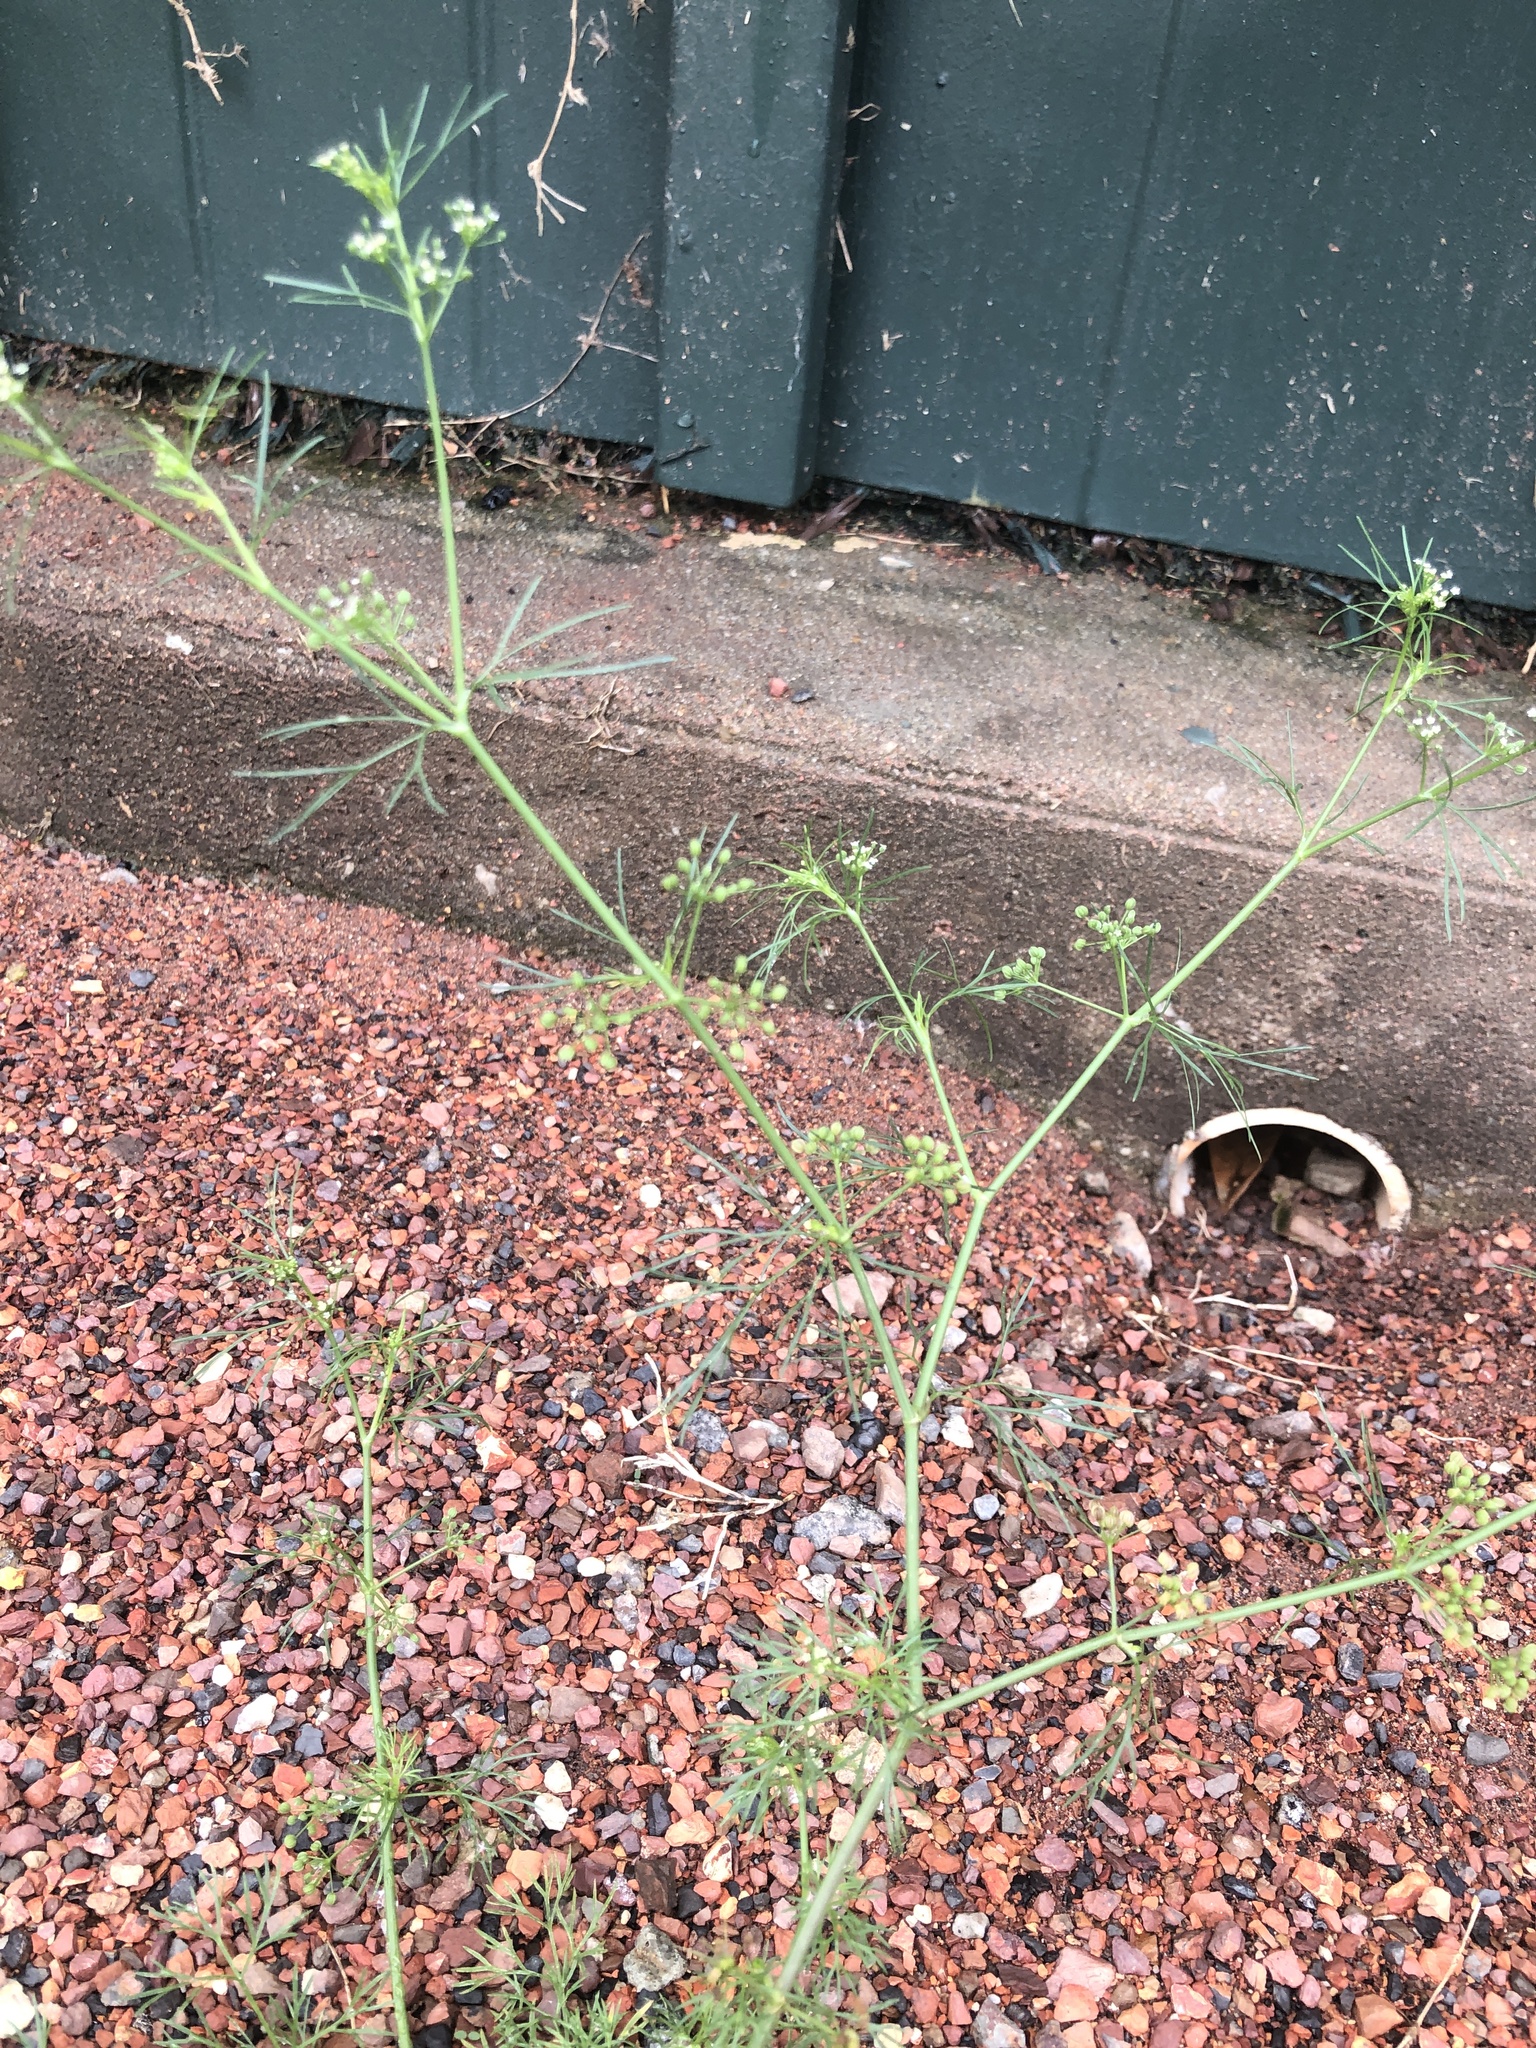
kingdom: Plantae
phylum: Tracheophyta
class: Magnoliopsida
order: Apiales
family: Apiaceae
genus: Cyclospermum
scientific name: Cyclospermum leptophyllum
